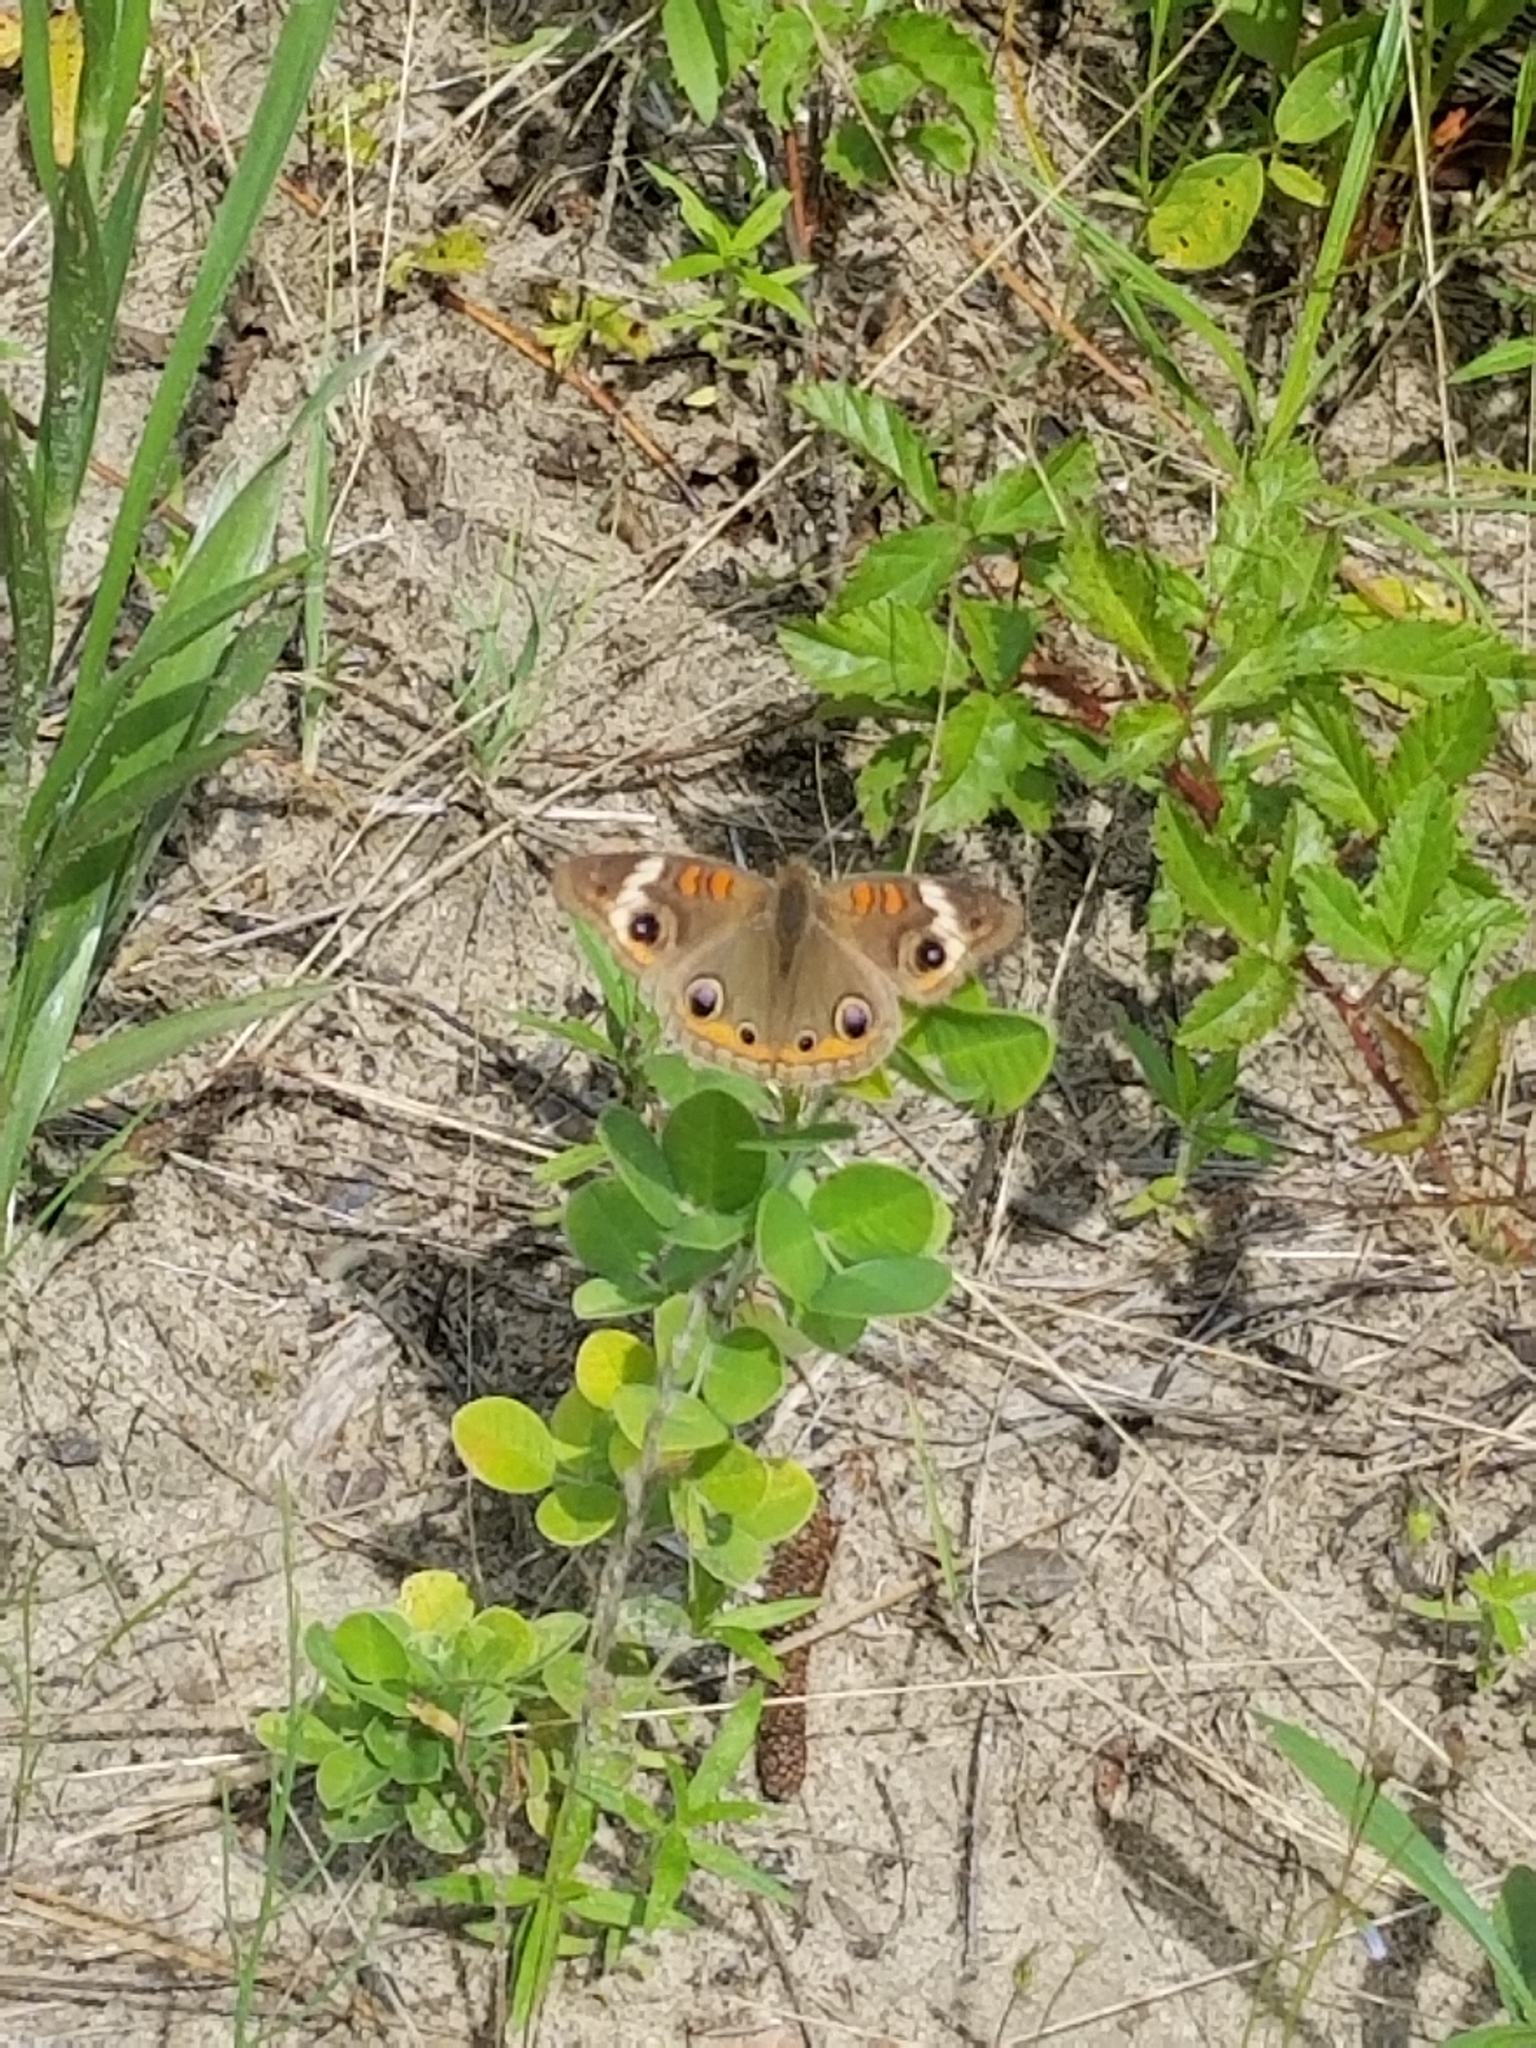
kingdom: Animalia
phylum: Arthropoda
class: Insecta
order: Lepidoptera
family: Nymphalidae
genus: Junonia
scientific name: Junonia coenia
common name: Common buckeye
